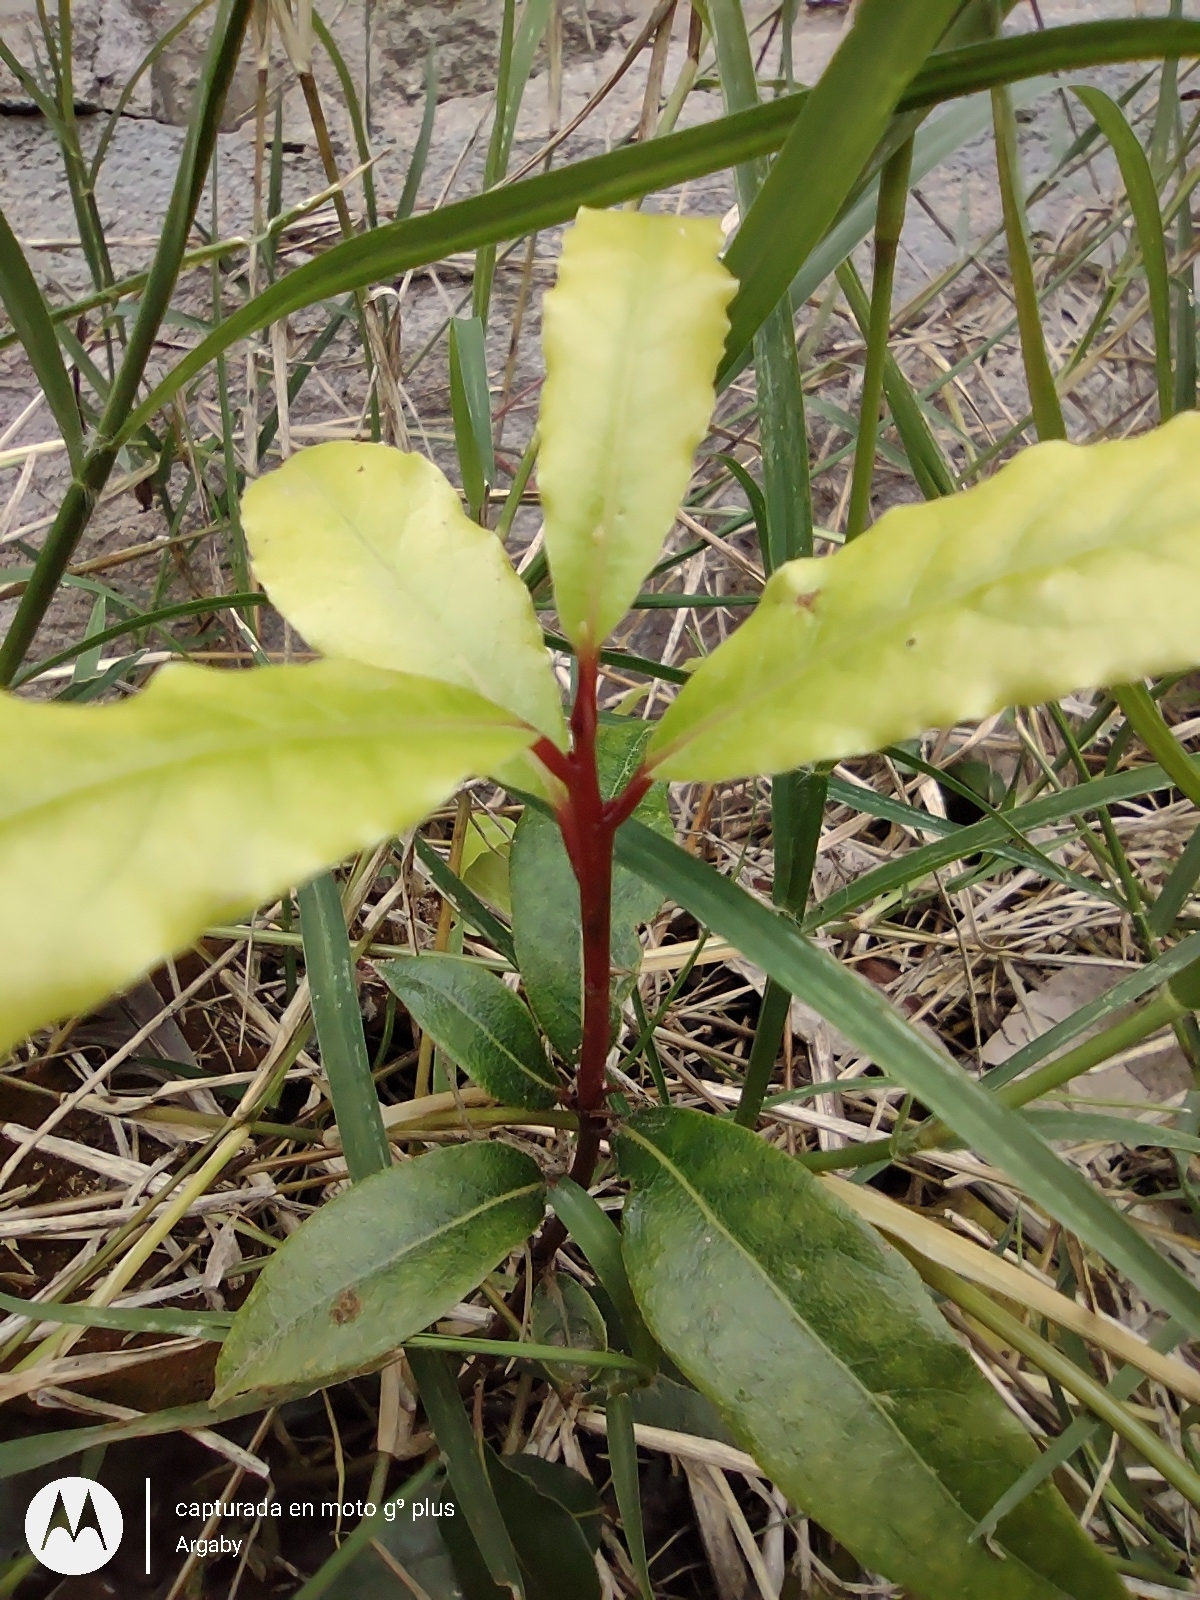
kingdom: Plantae
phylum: Tracheophyta
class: Magnoliopsida
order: Laurales
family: Lauraceae
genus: Laurus
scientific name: Laurus nobilis
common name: Bay
